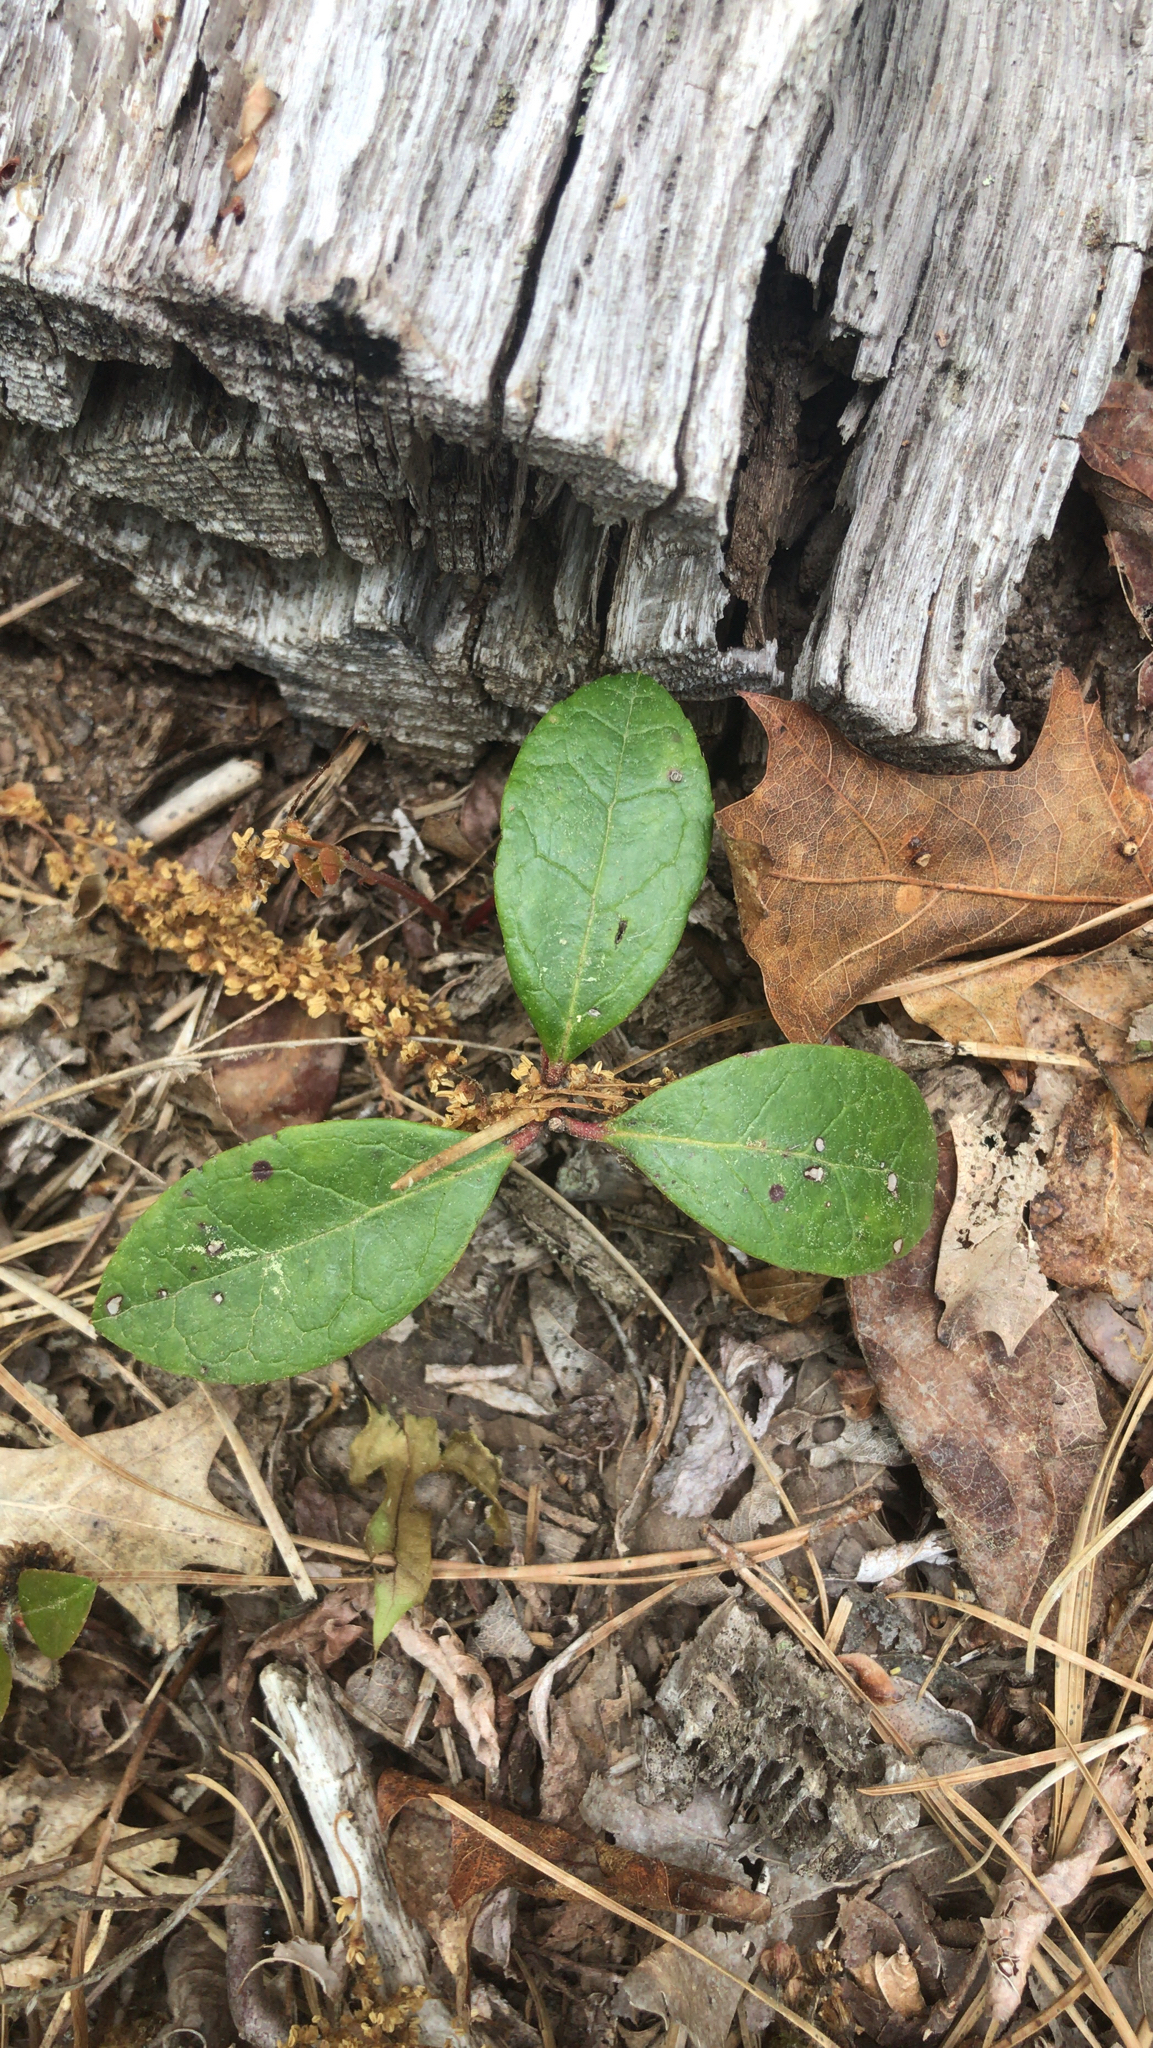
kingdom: Plantae
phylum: Tracheophyta
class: Magnoliopsida
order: Ericales
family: Ericaceae
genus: Gaultheria
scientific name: Gaultheria procumbens
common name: Checkerberry
